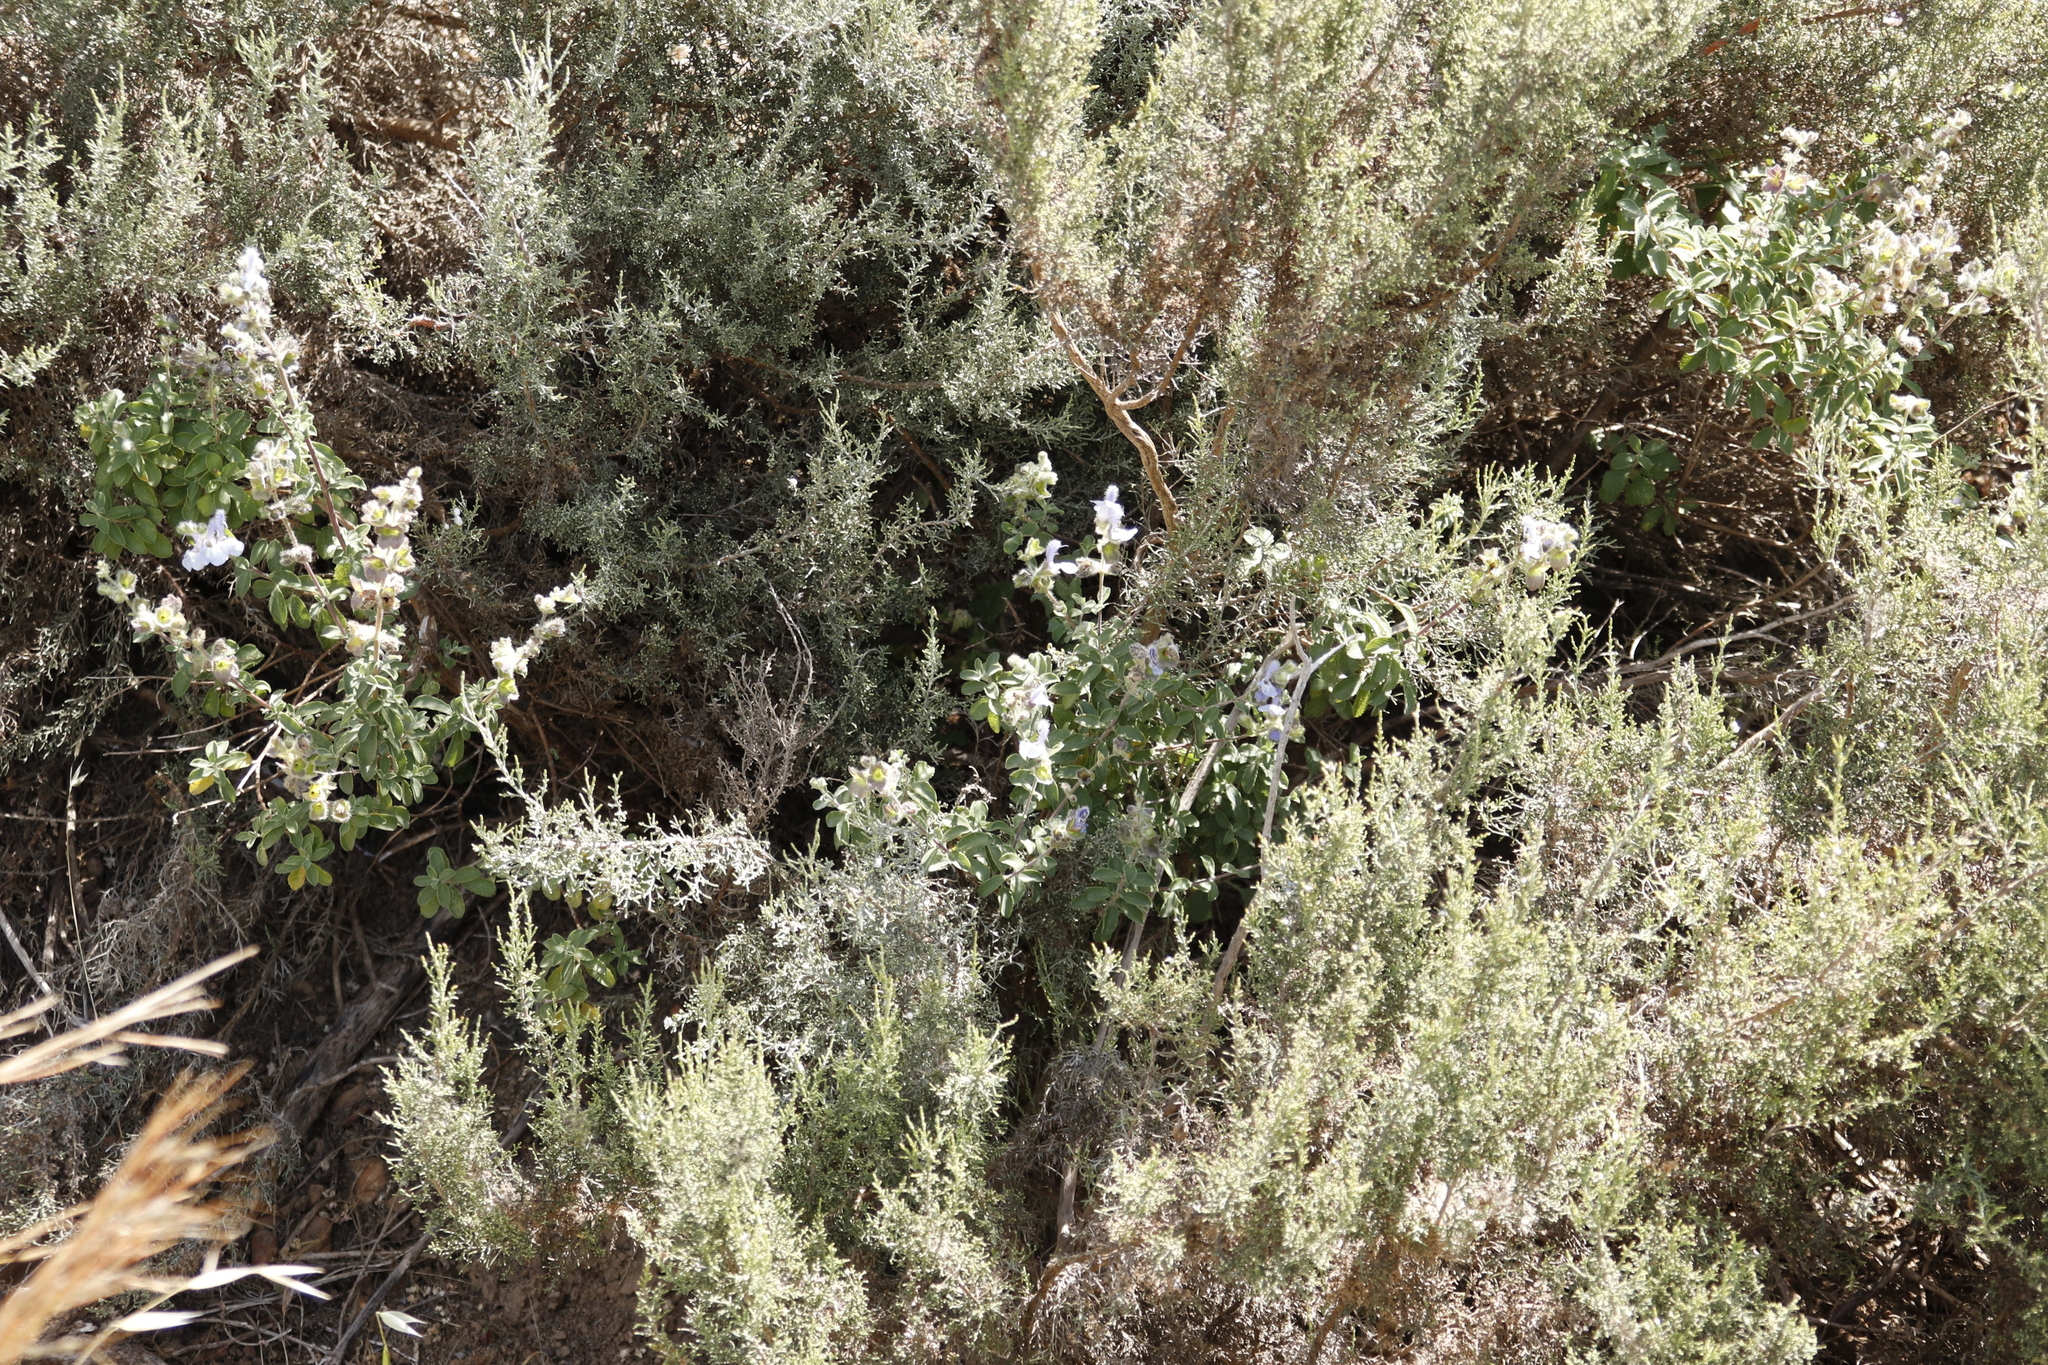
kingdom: Plantae
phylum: Tracheophyta
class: Magnoliopsida
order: Lamiales
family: Lamiaceae
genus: Salvia
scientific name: Salvia africana
